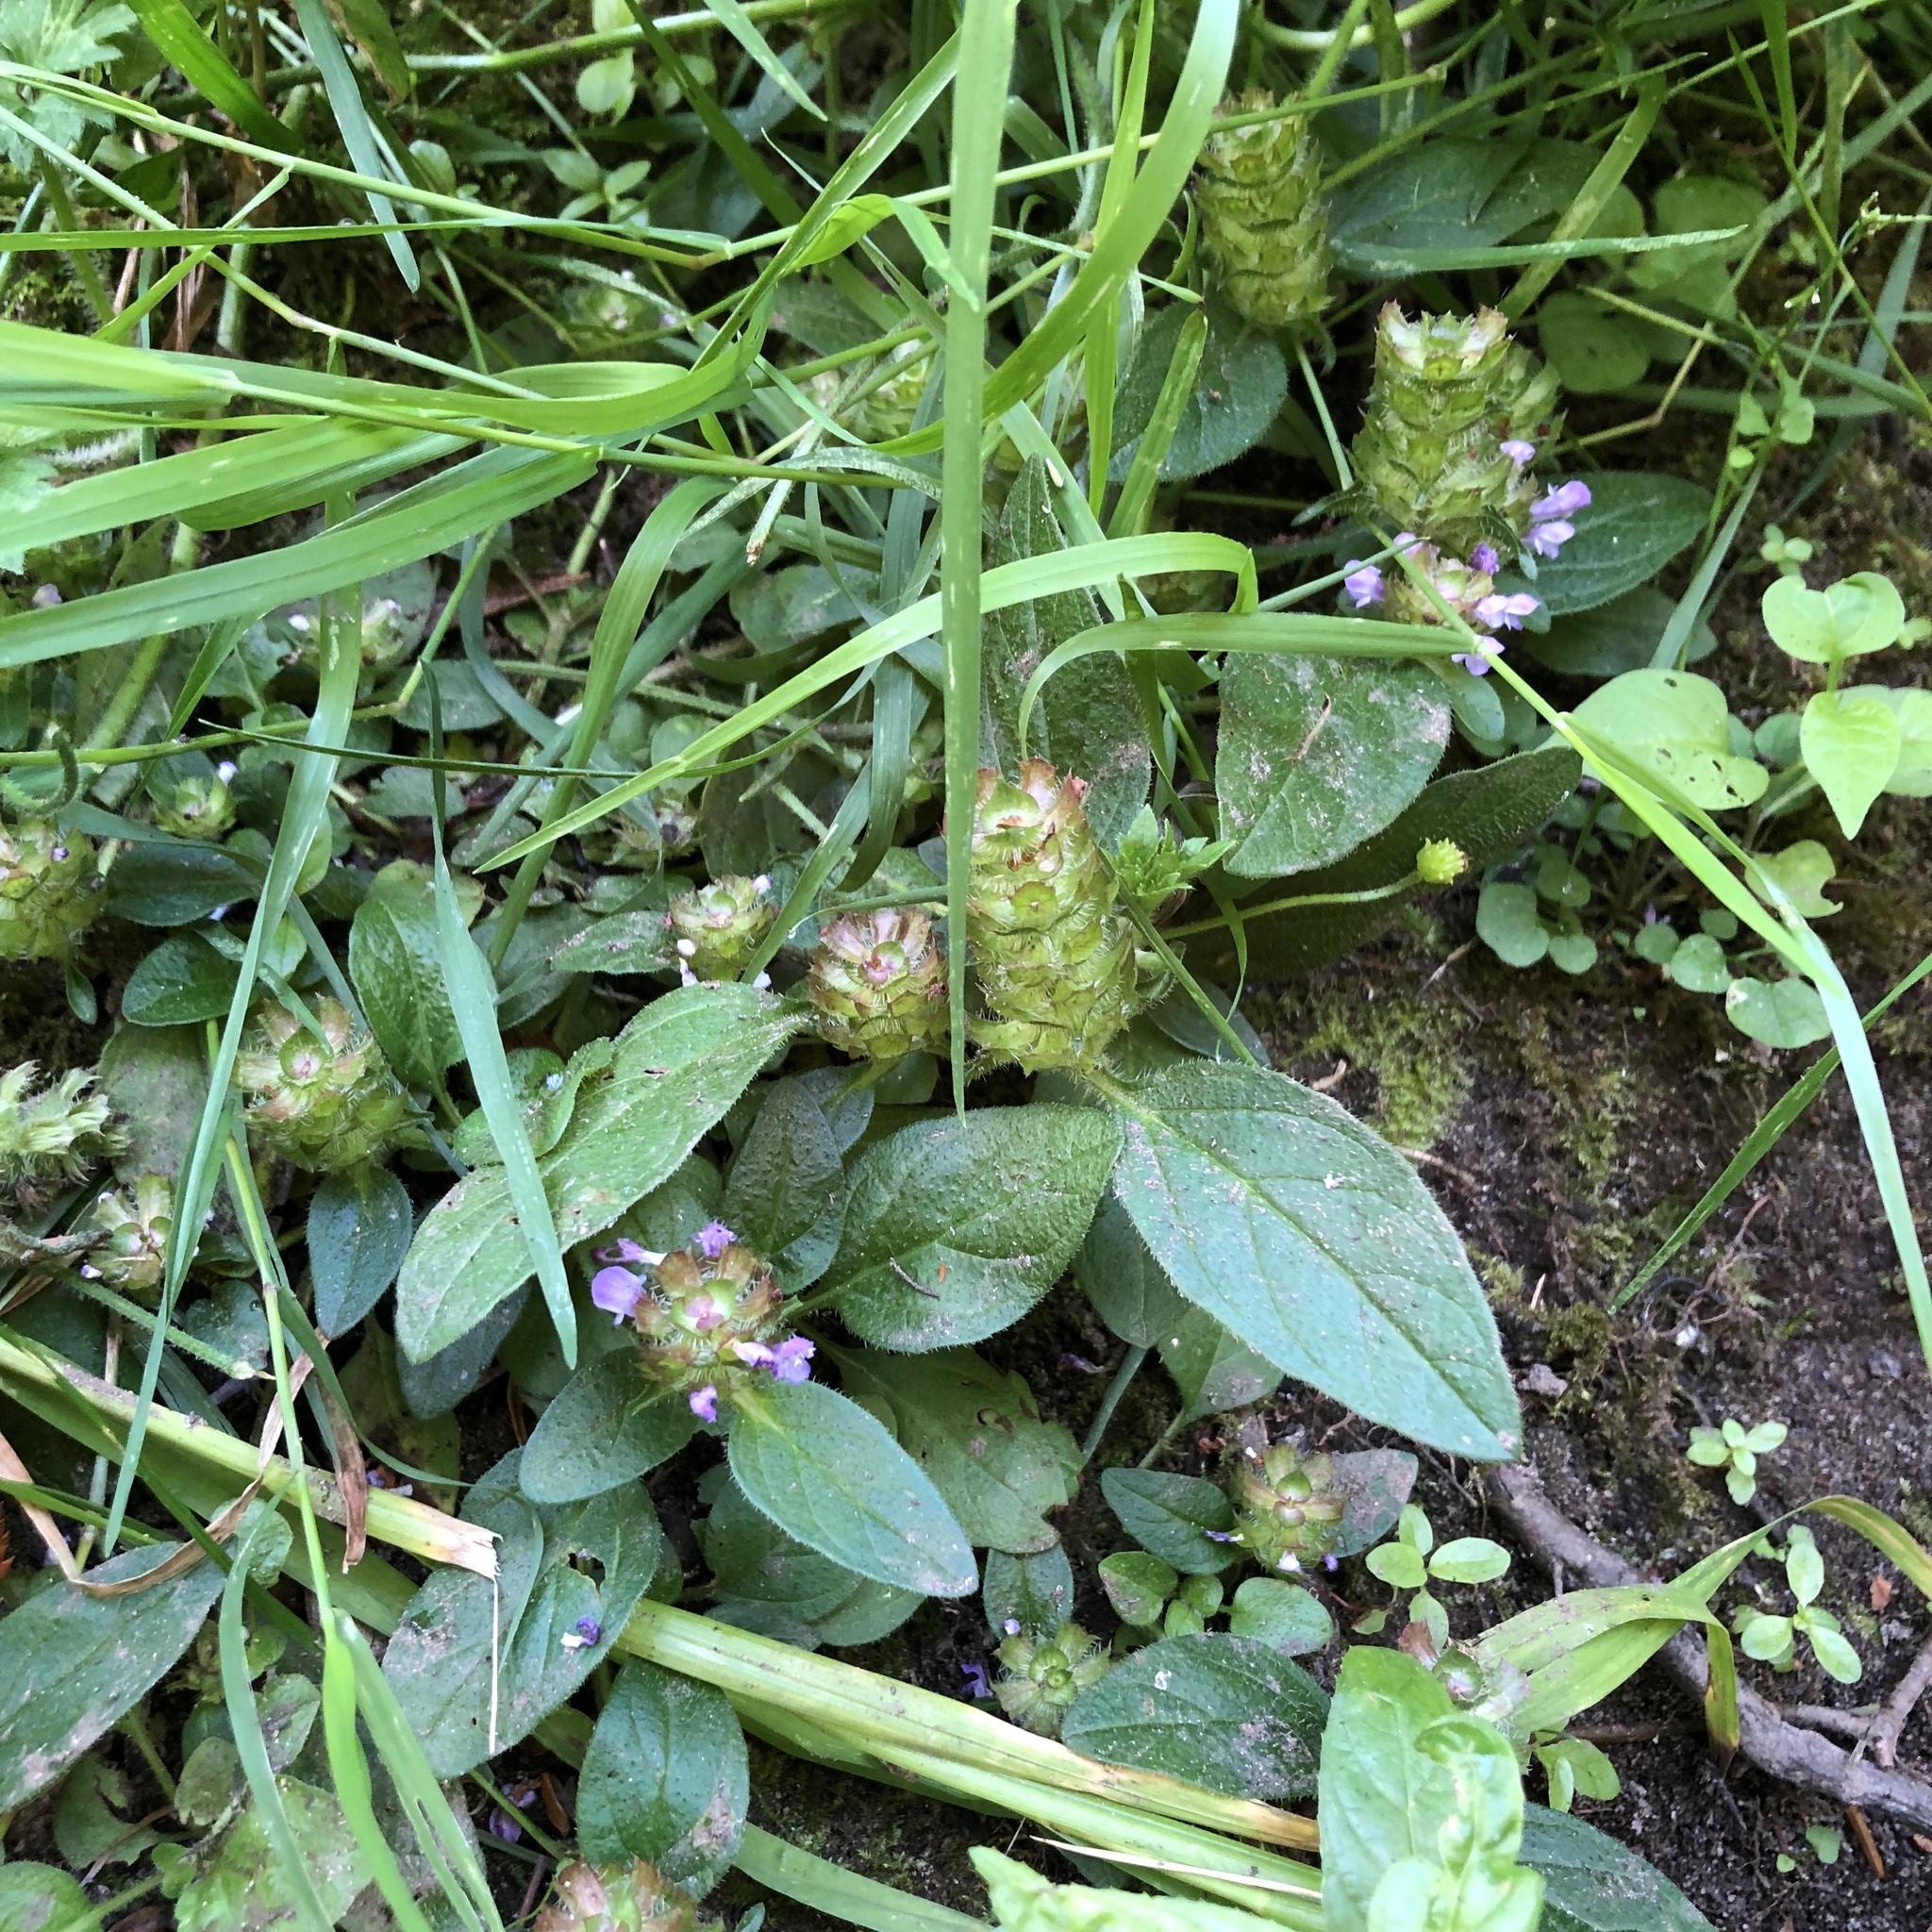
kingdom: Plantae
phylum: Tracheophyta
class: Magnoliopsida
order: Lamiales
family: Lamiaceae
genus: Prunella
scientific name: Prunella vulgaris
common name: Heal-all
